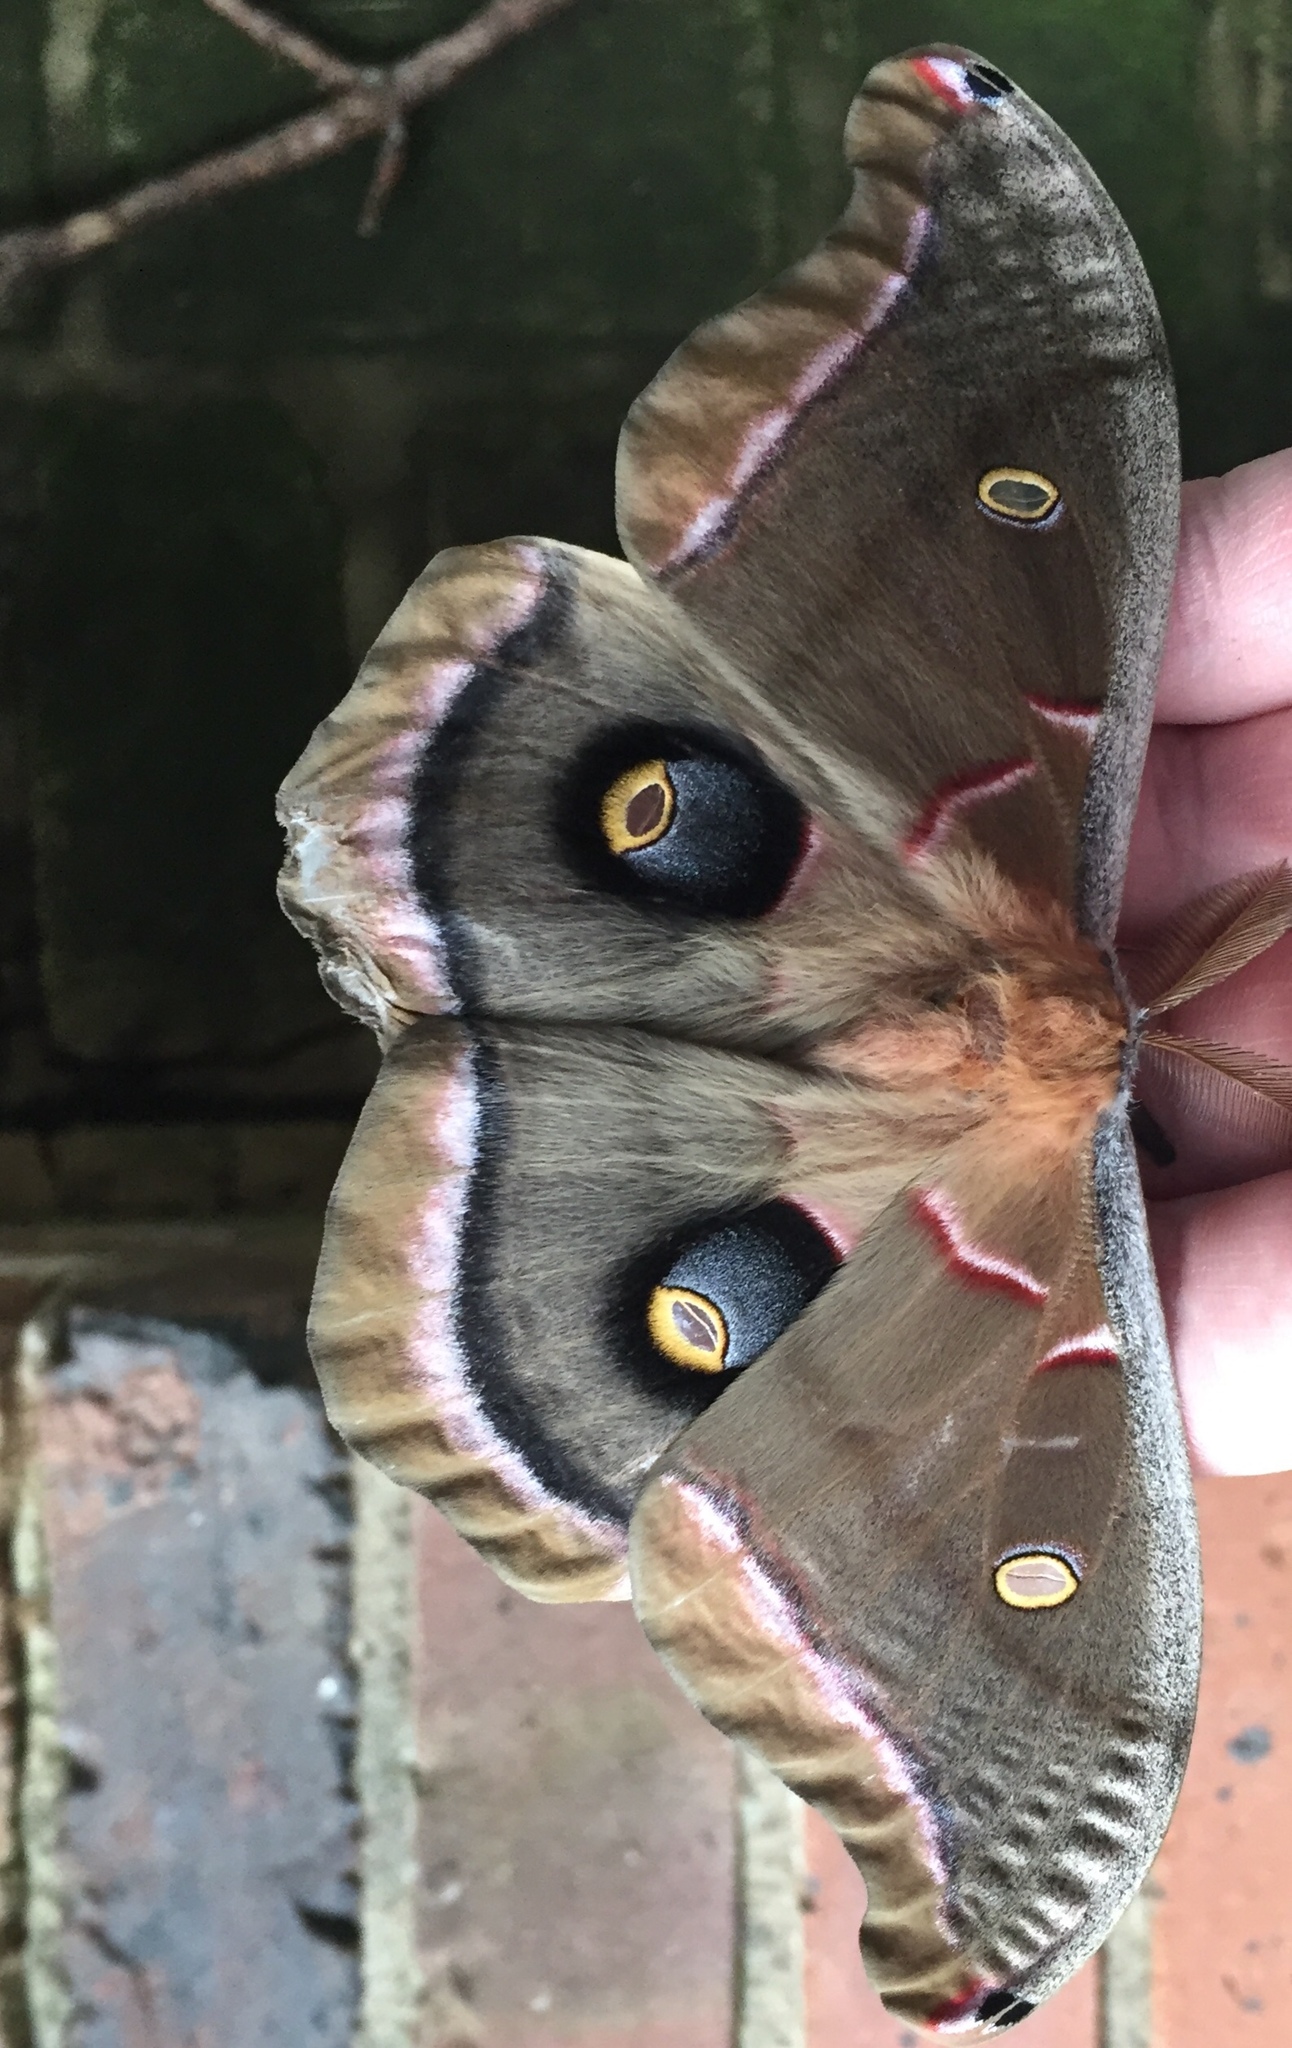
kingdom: Animalia
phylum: Arthropoda
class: Insecta
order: Lepidoptera
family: Saturniidae
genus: Antheraea
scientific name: Antheraea polyphemus
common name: Polyphemus moth
